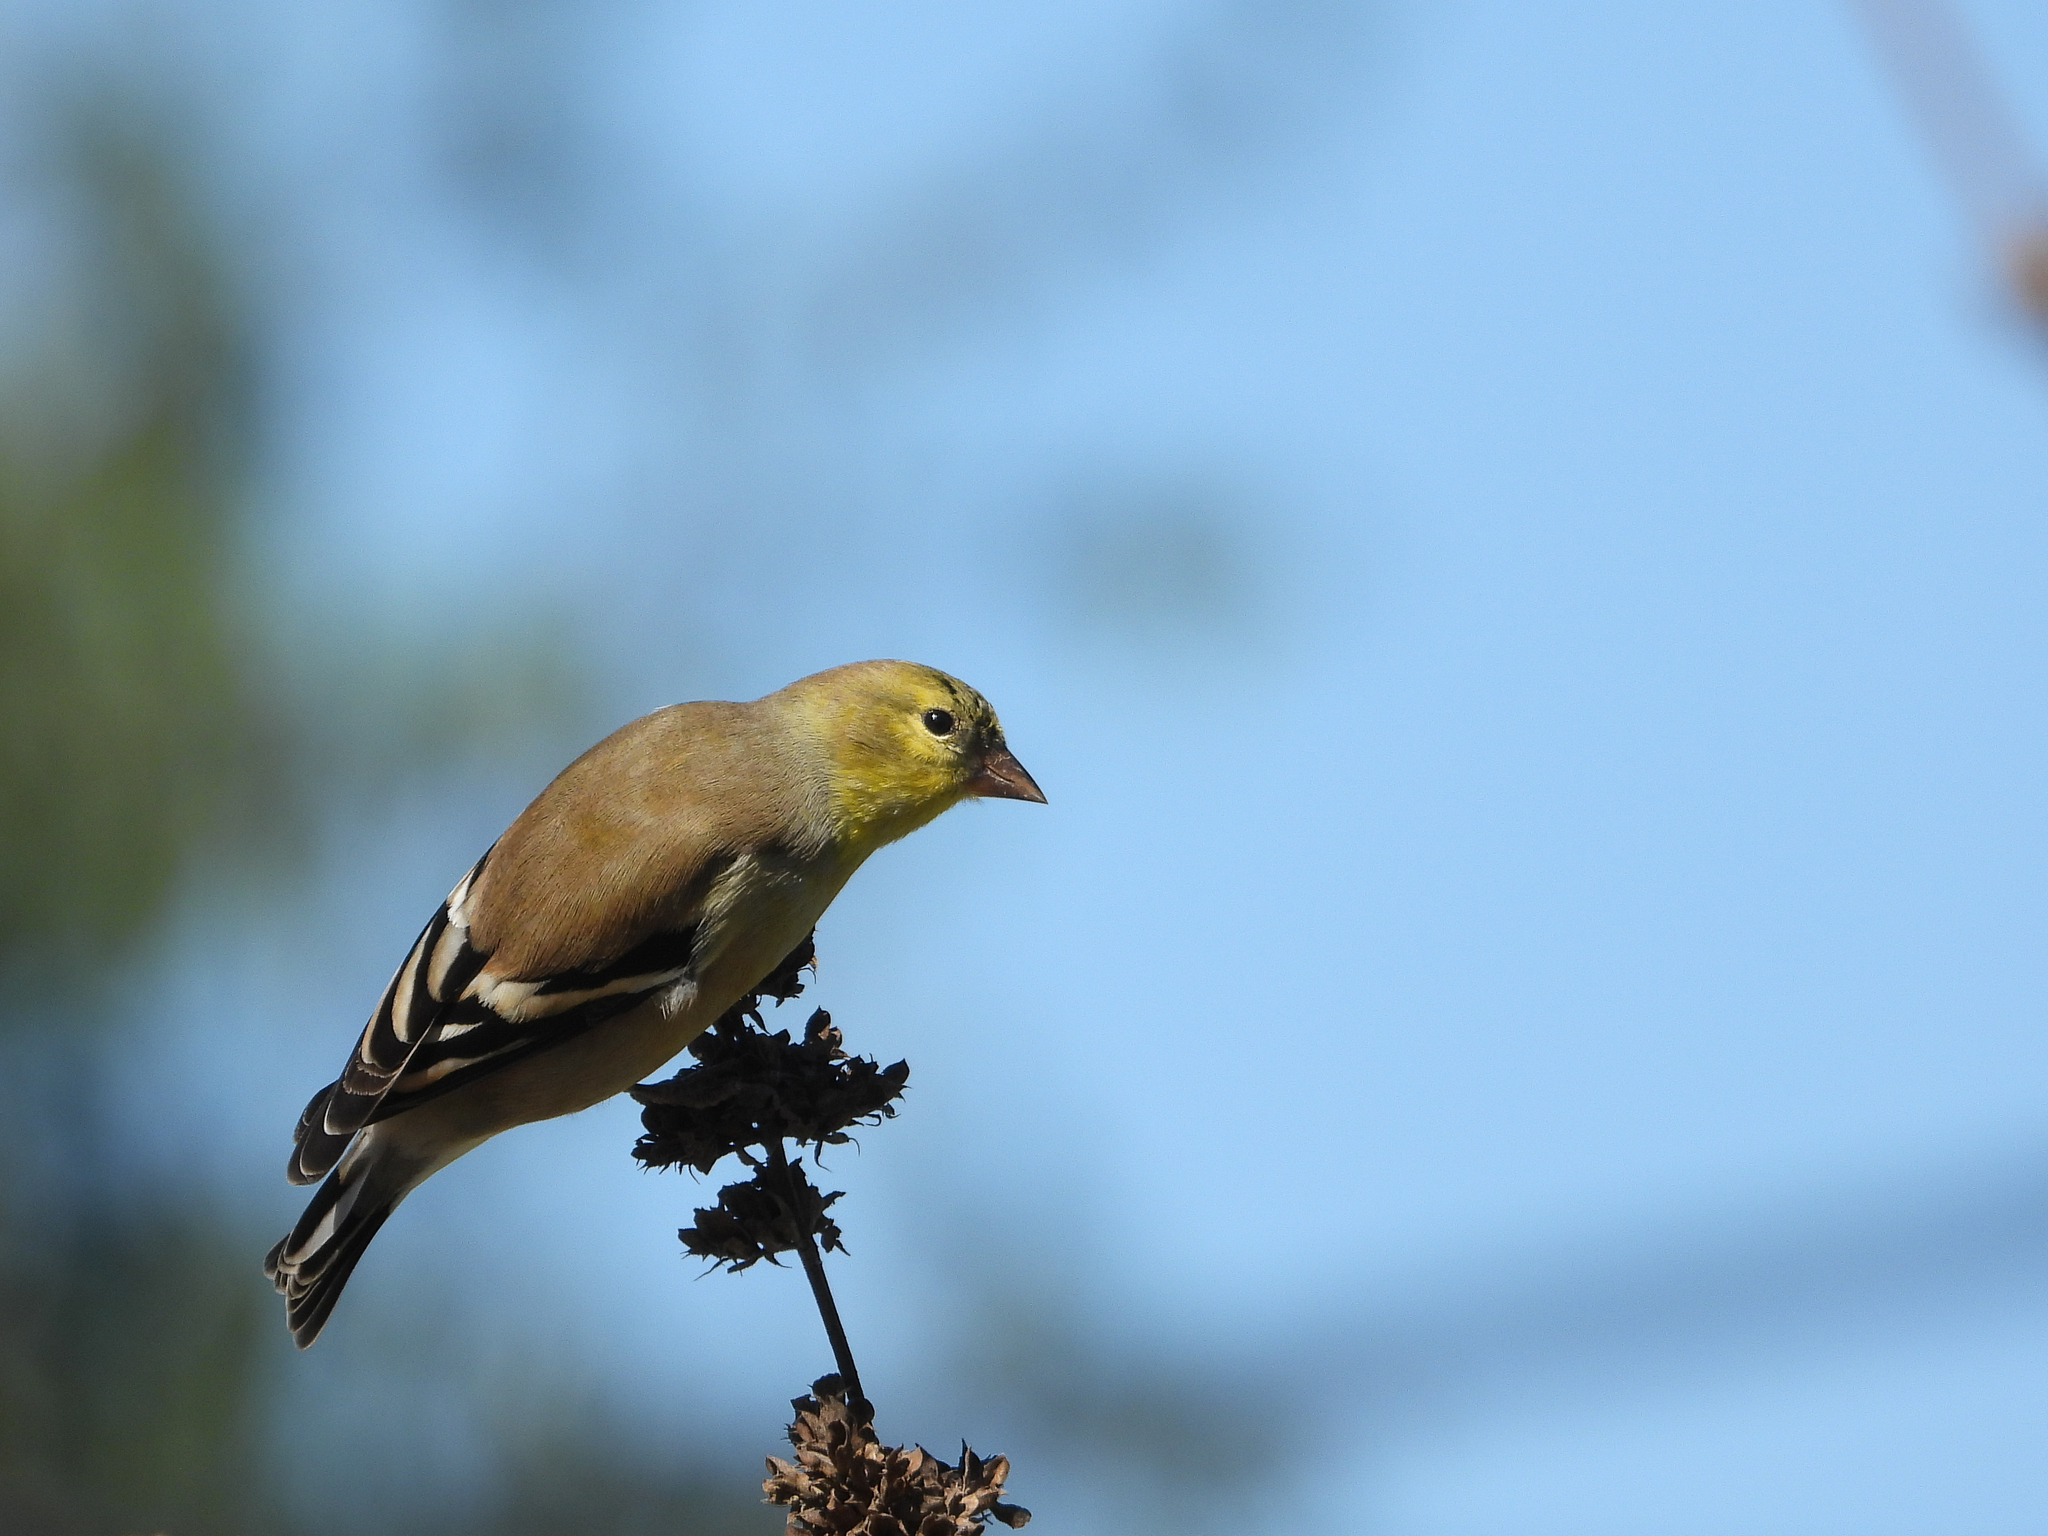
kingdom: Animalia
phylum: Chordata
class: Aves
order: Passeriformes
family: Fringillidae
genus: Spinus
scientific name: Spinus tristis
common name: American goldfinch
